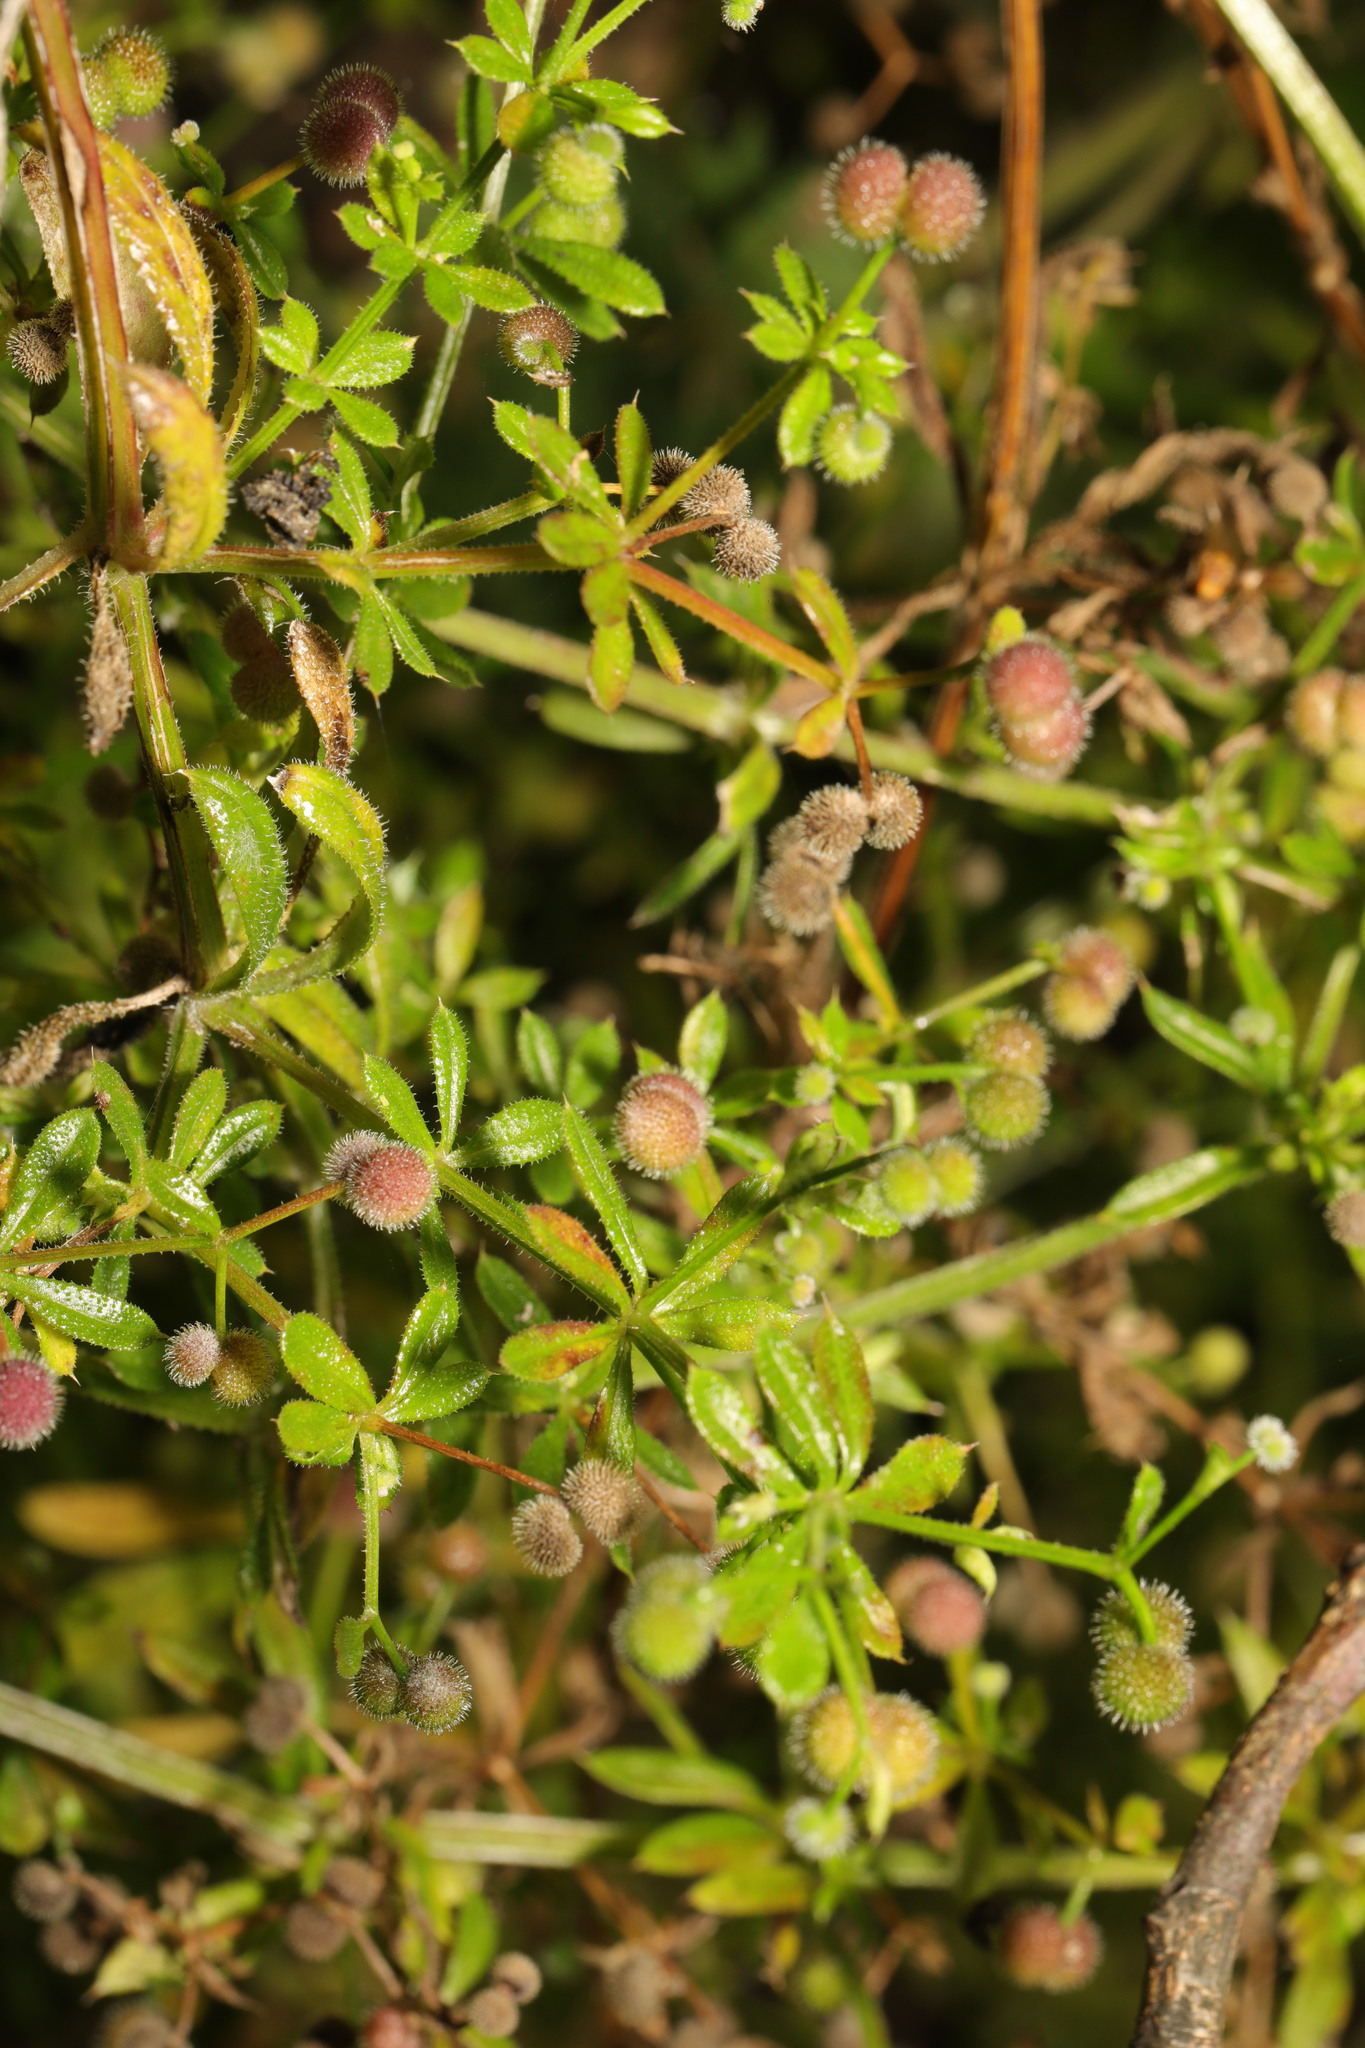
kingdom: Plantae
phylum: Tracheophyta
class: Magnoliopsida
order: Gentianales
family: Rubiaceae
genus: Galium
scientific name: Galium aparine
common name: Cleavers
